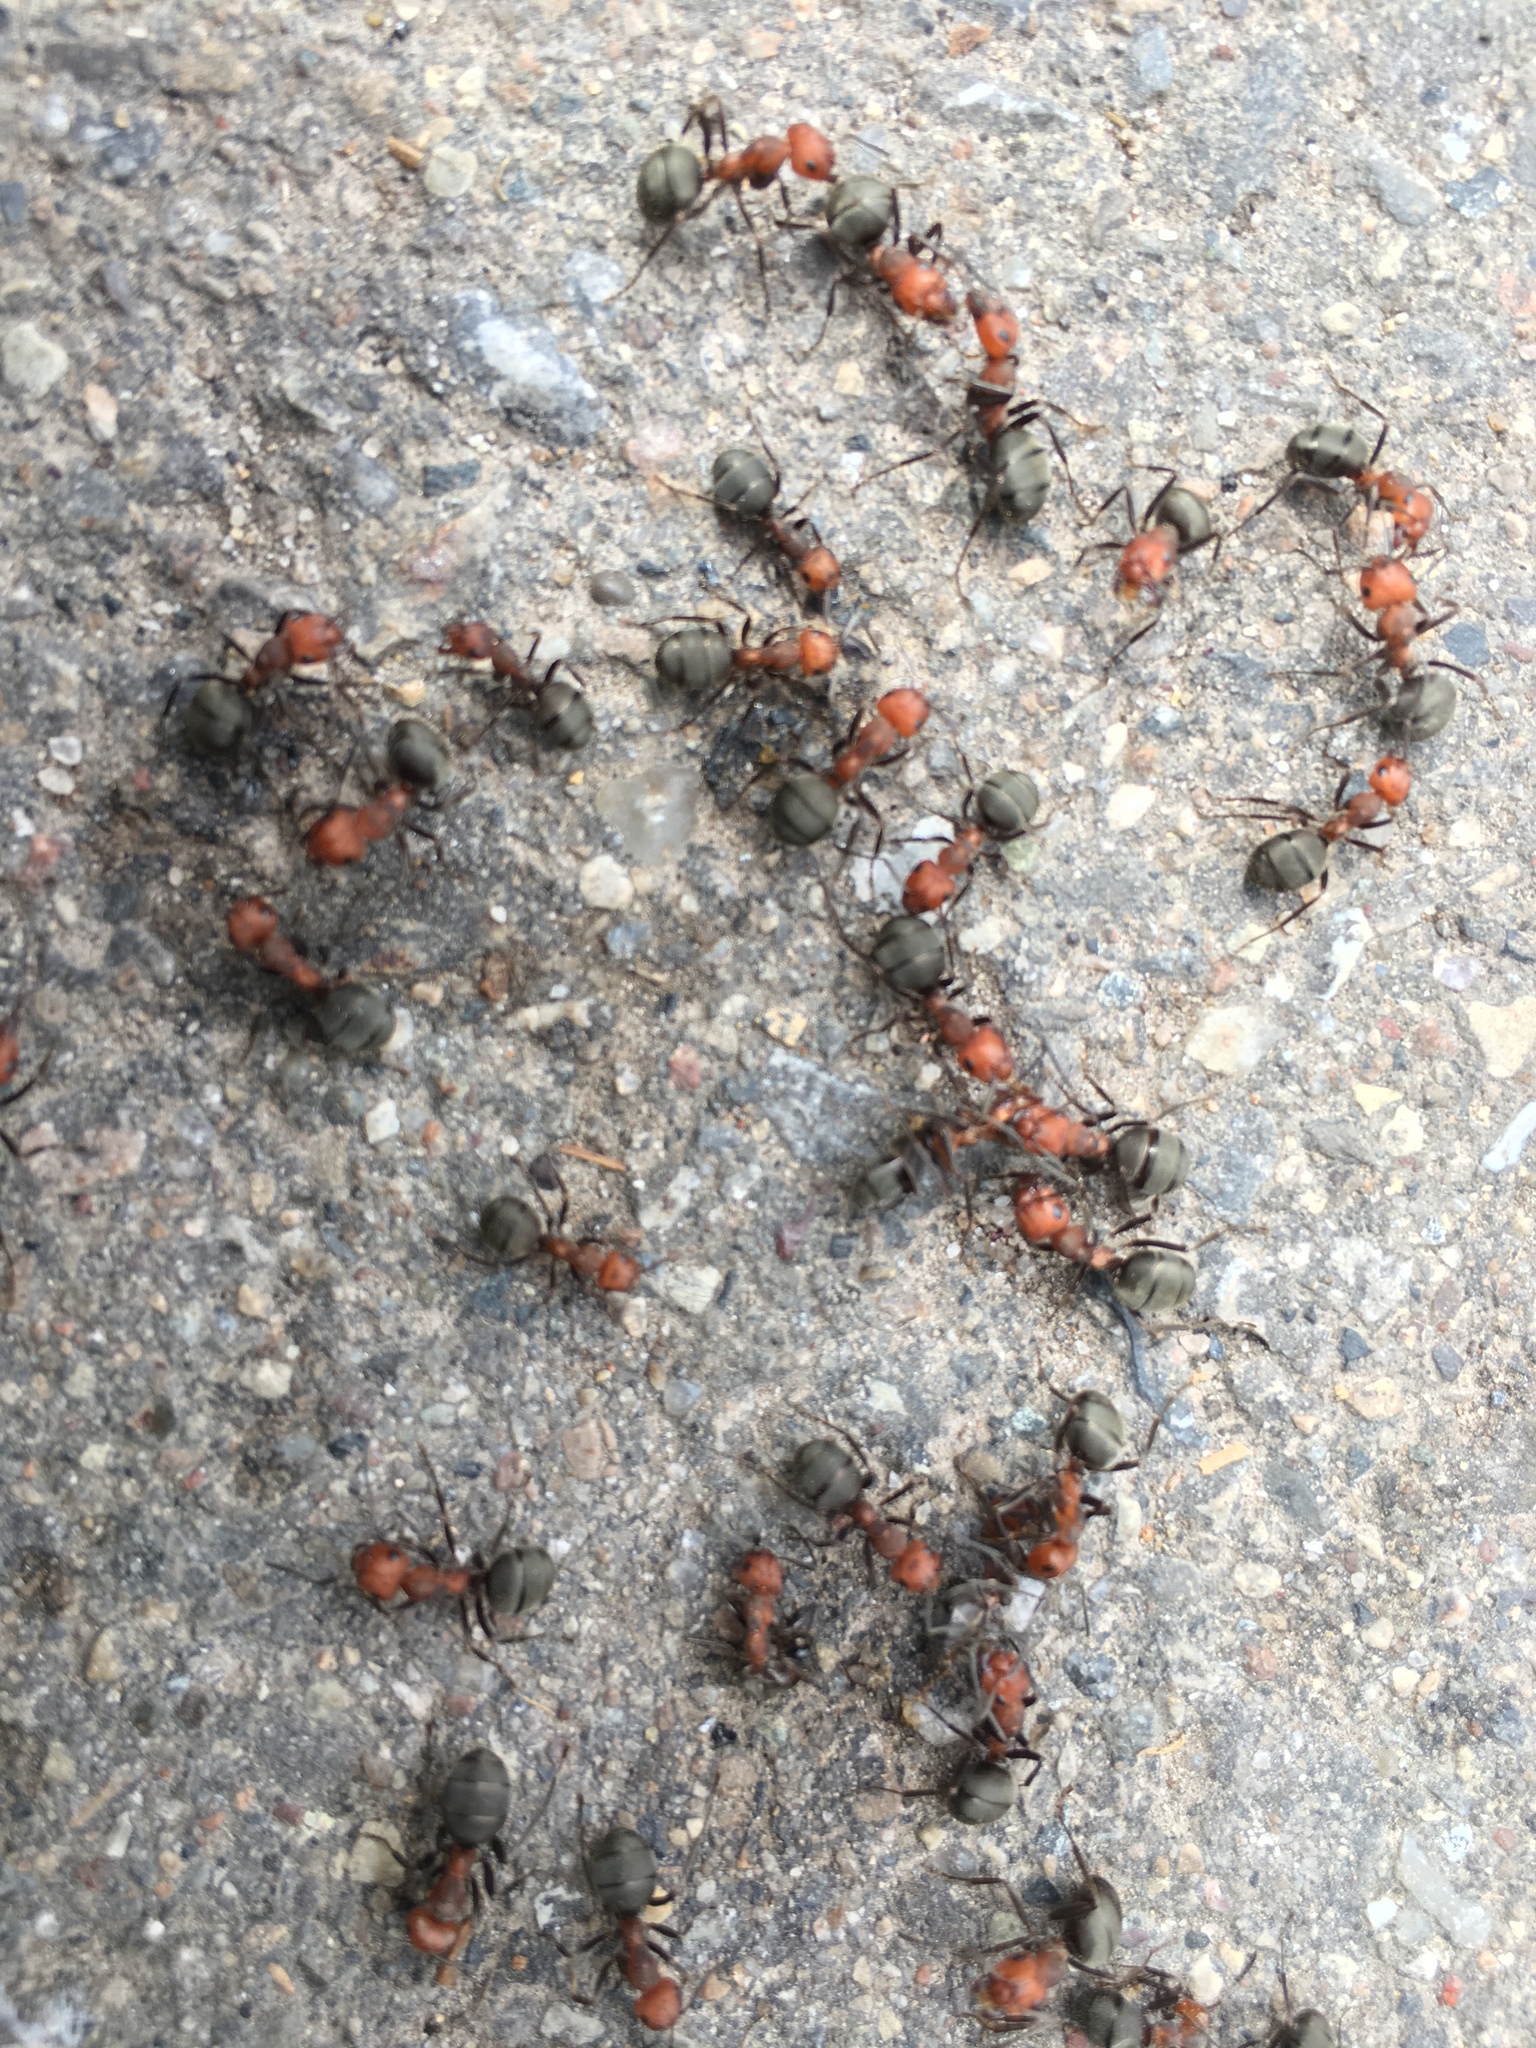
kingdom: Animalia
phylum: Arthropoda
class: Insecta
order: Hymenoptera
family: Formicidae
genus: Formica
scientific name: Formica obscuripes
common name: Western thatching ant
